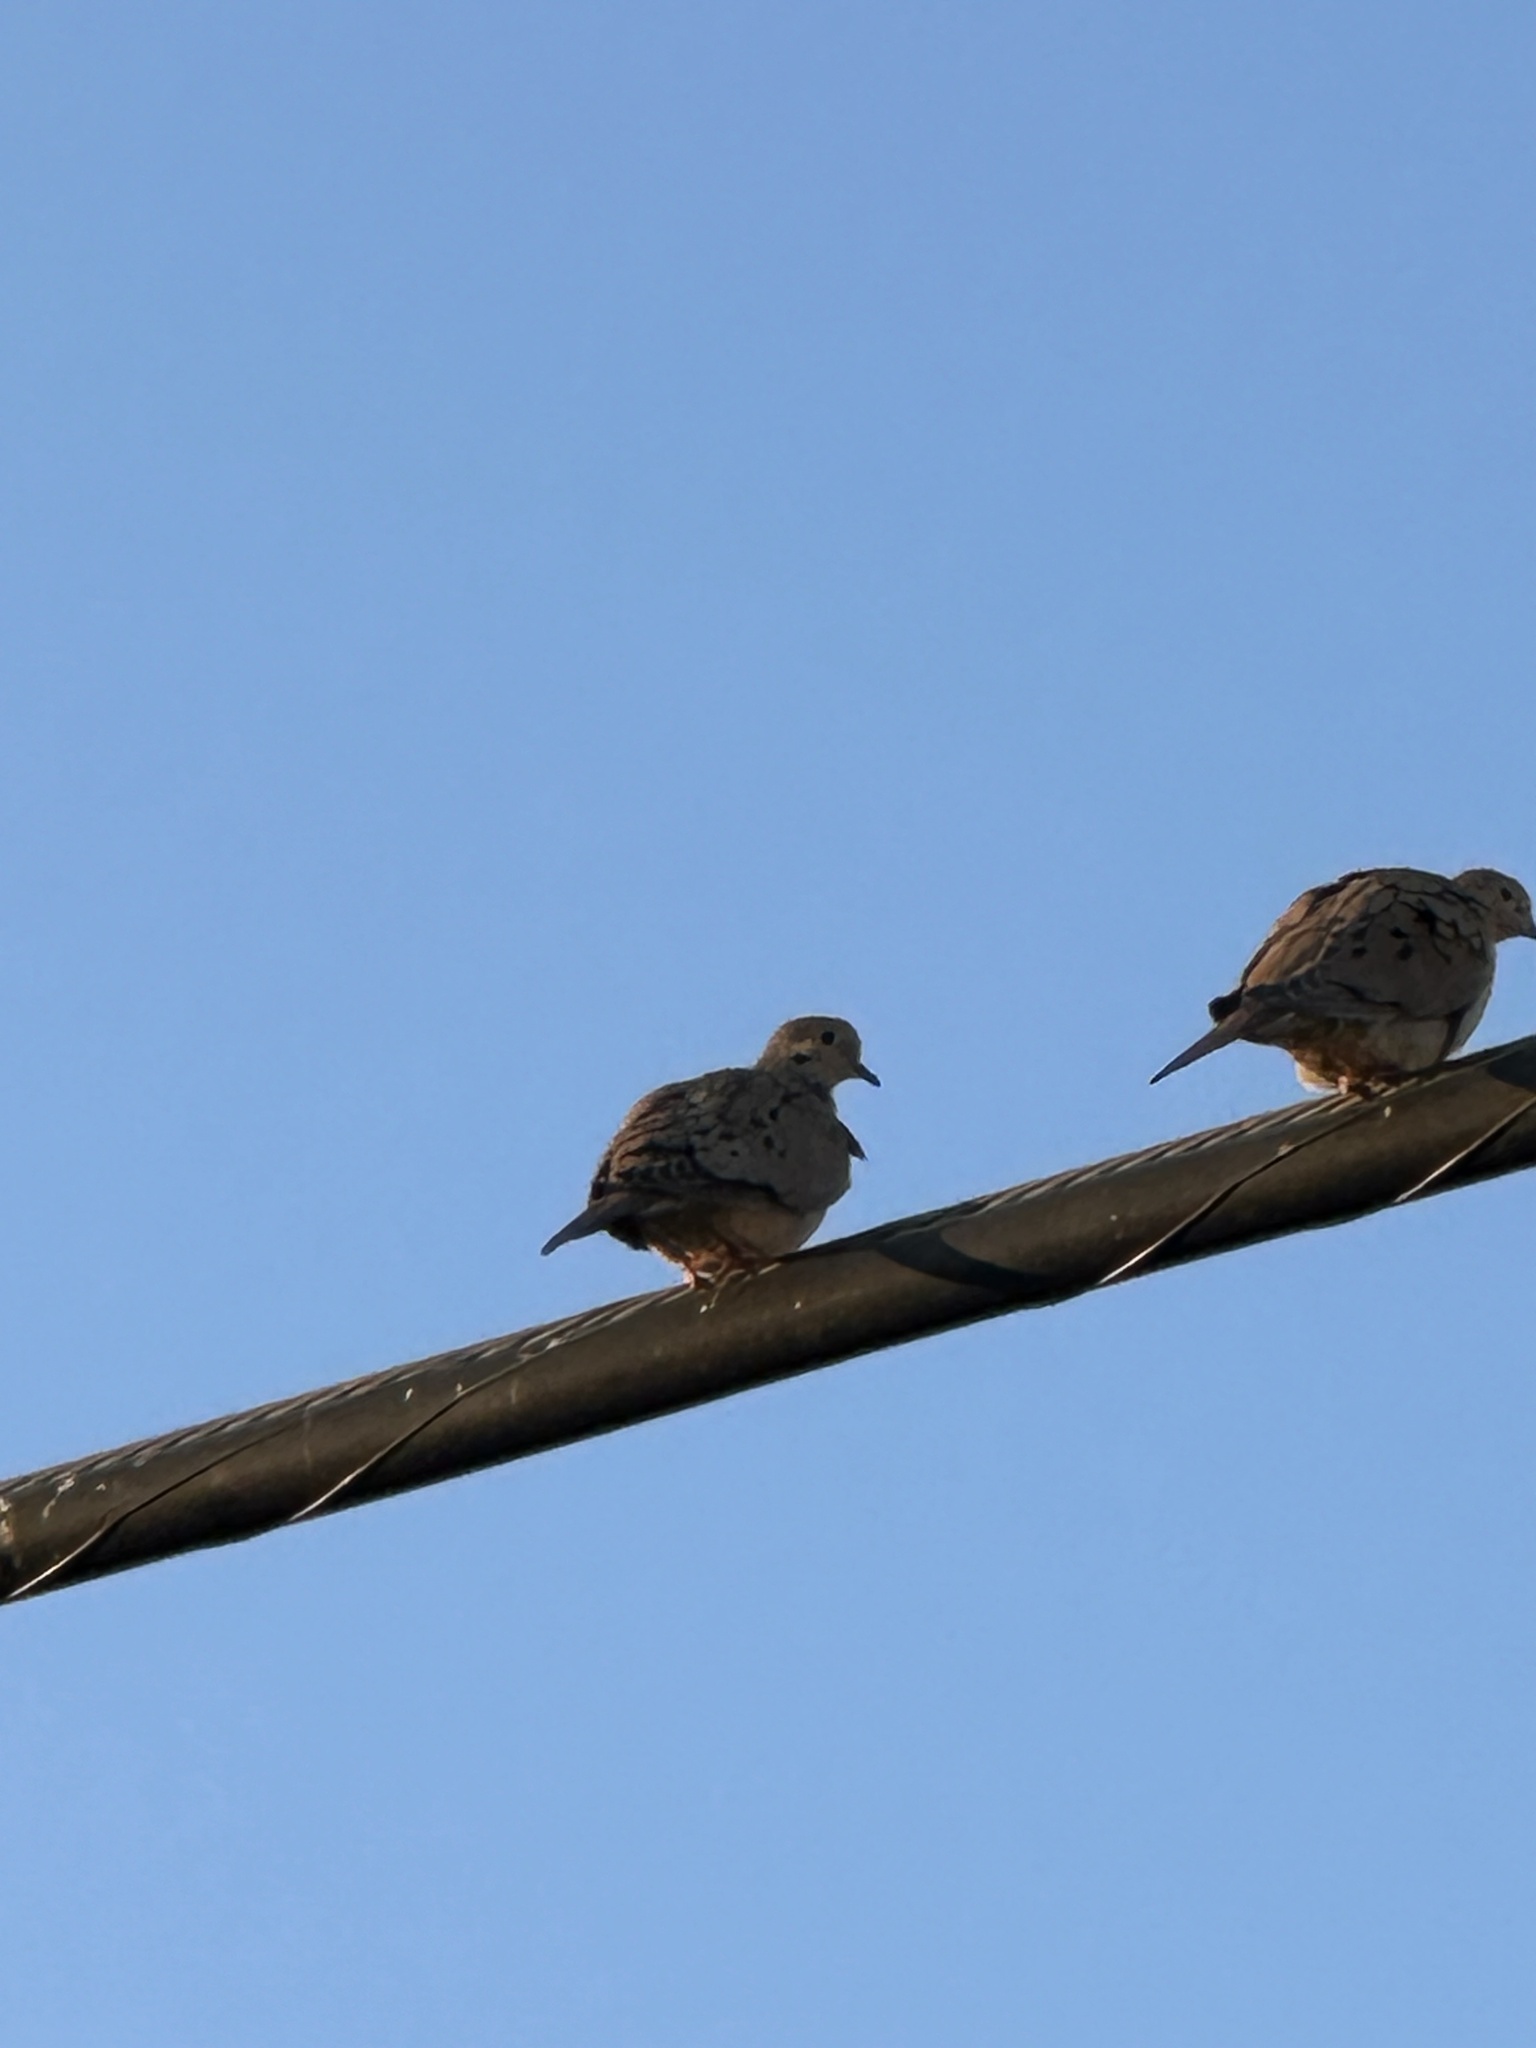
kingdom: Animalia
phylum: Chordata
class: Aves
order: Columbiformes
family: Columbidae
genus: Zenaida
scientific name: Zenaida macroura
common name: Mourning dove
